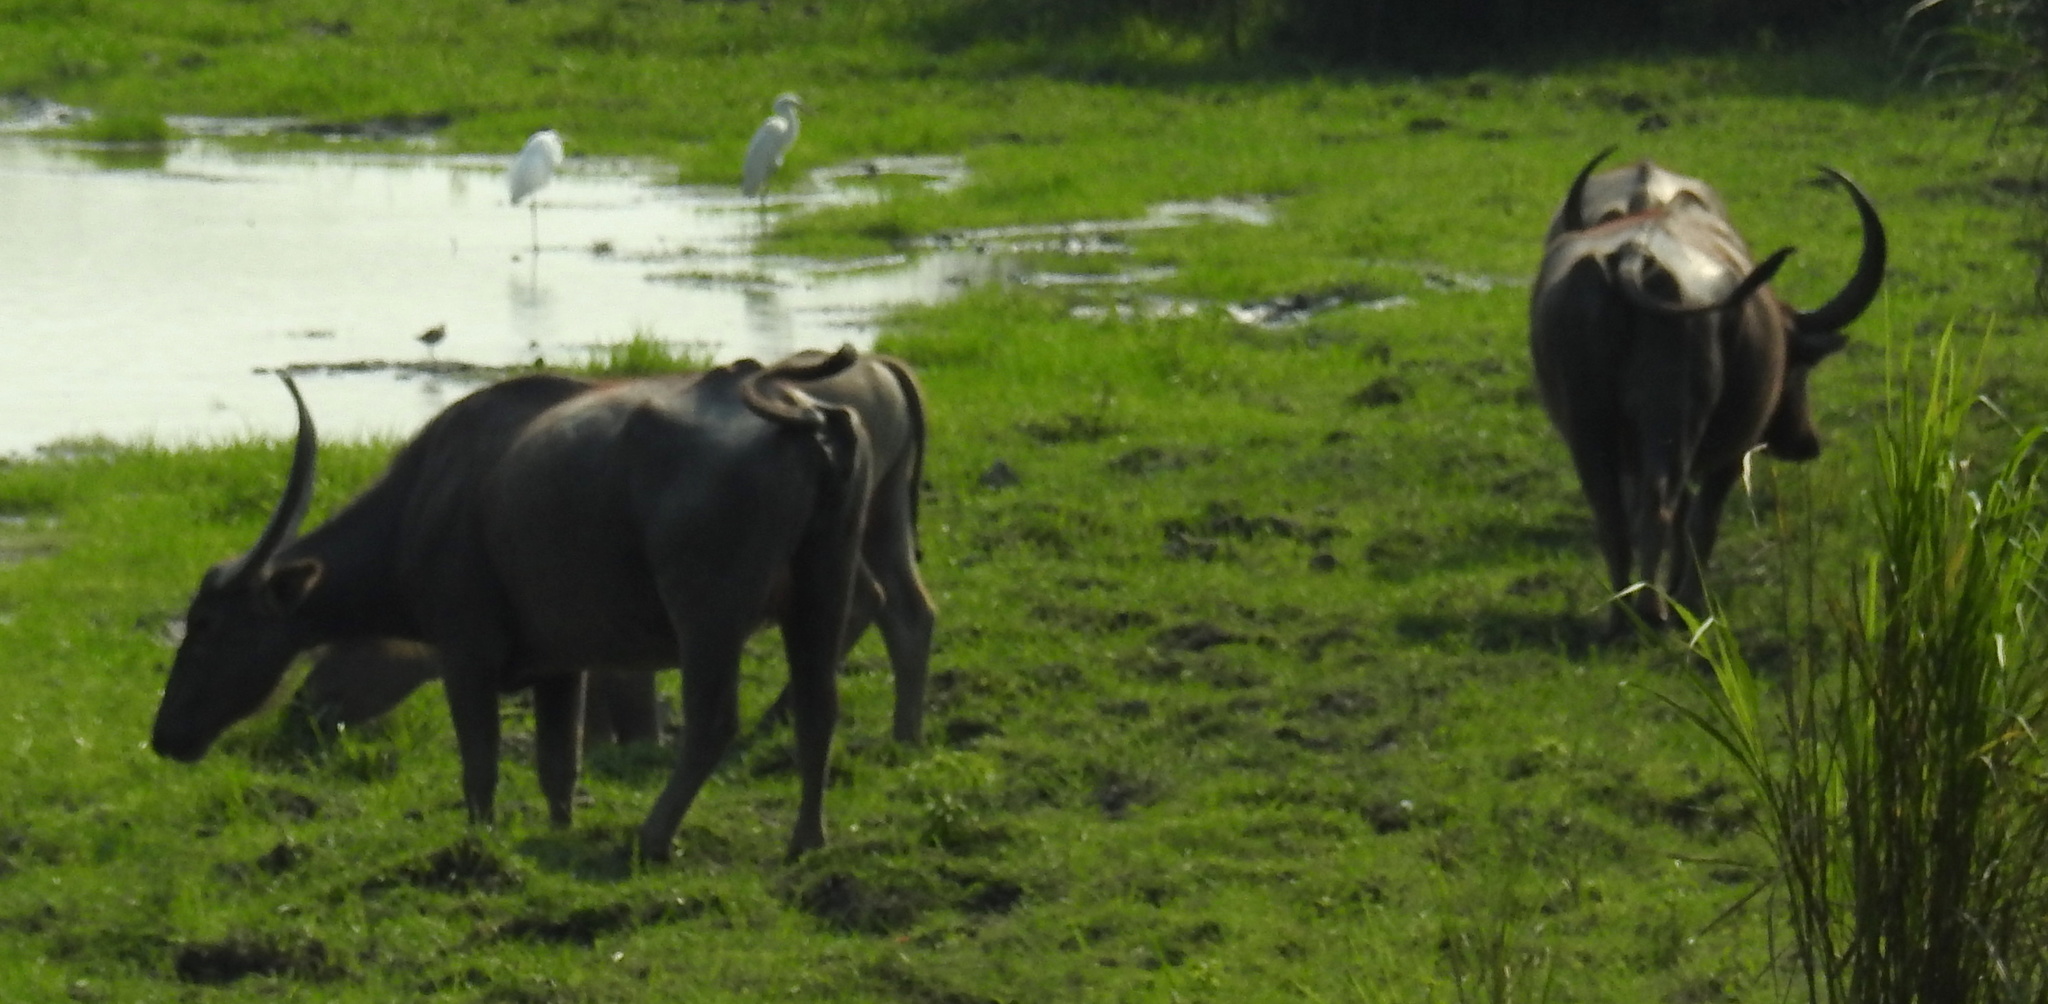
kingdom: Animalia
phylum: Chordata
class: Mammalia
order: Artiodactyla
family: Bovidae
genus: Bubalus
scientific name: Bubalus bubalis
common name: Water buffalo
